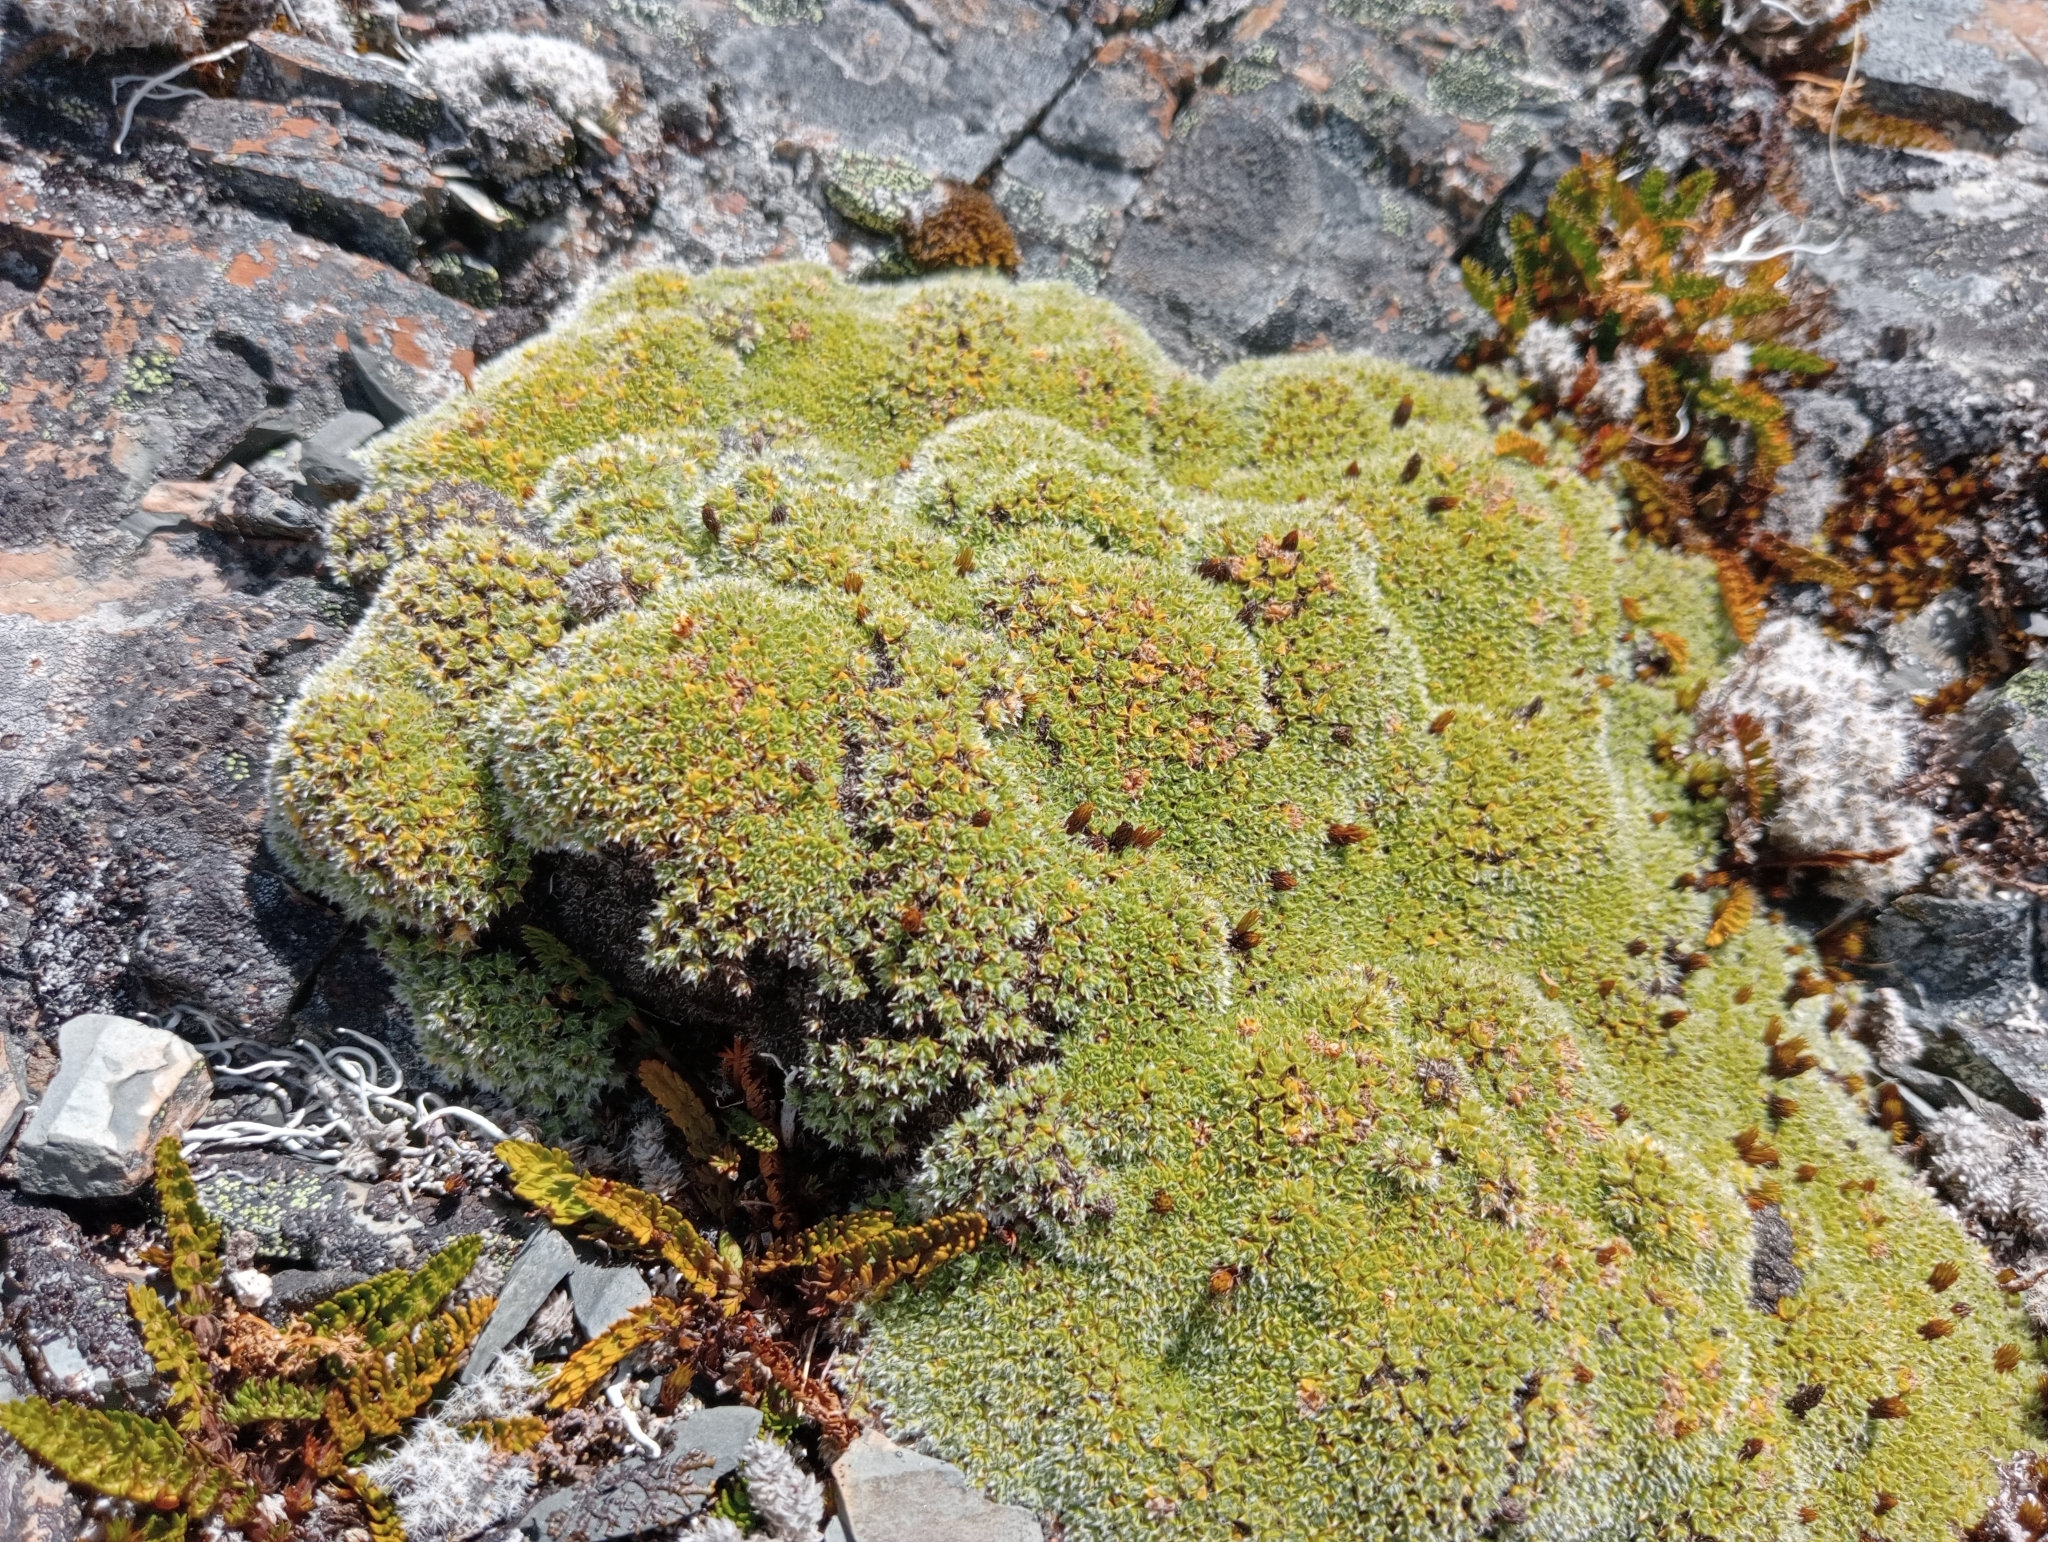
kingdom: Plantae
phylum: Tracheophyta
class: Magnoliopsida
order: Lamiales
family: Plantaginaceae
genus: Veronica
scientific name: Veronica thomsonii
